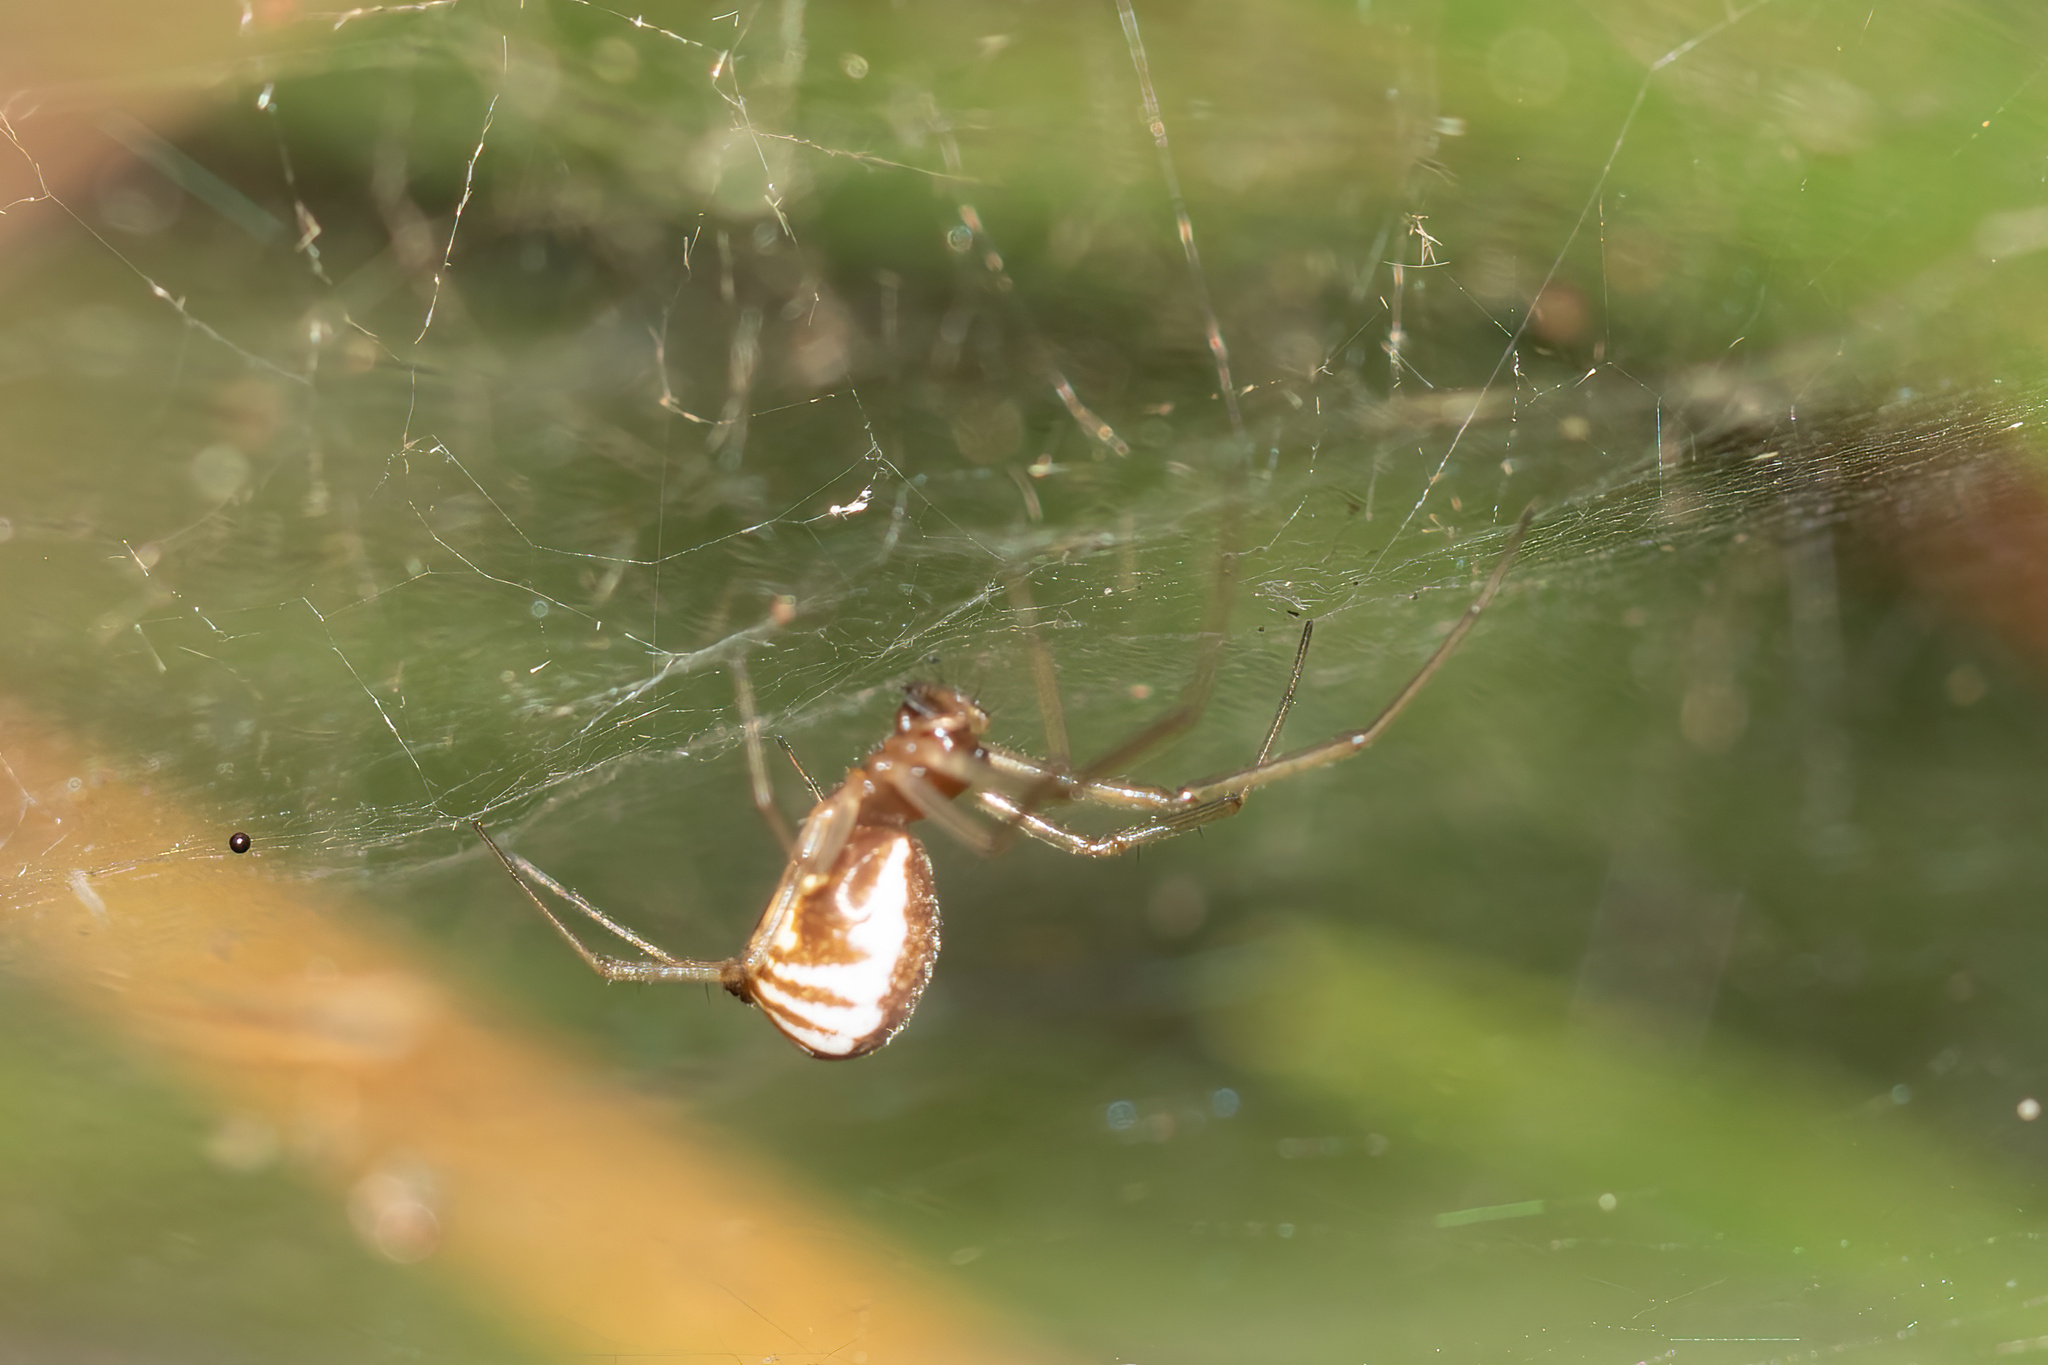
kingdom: Animalia
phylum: Arthropoda
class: Arachnida
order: Araneae
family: Linyphiidae
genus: Frontinella
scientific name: Frontinella pyramitela
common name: Bowl-and-doily spider
